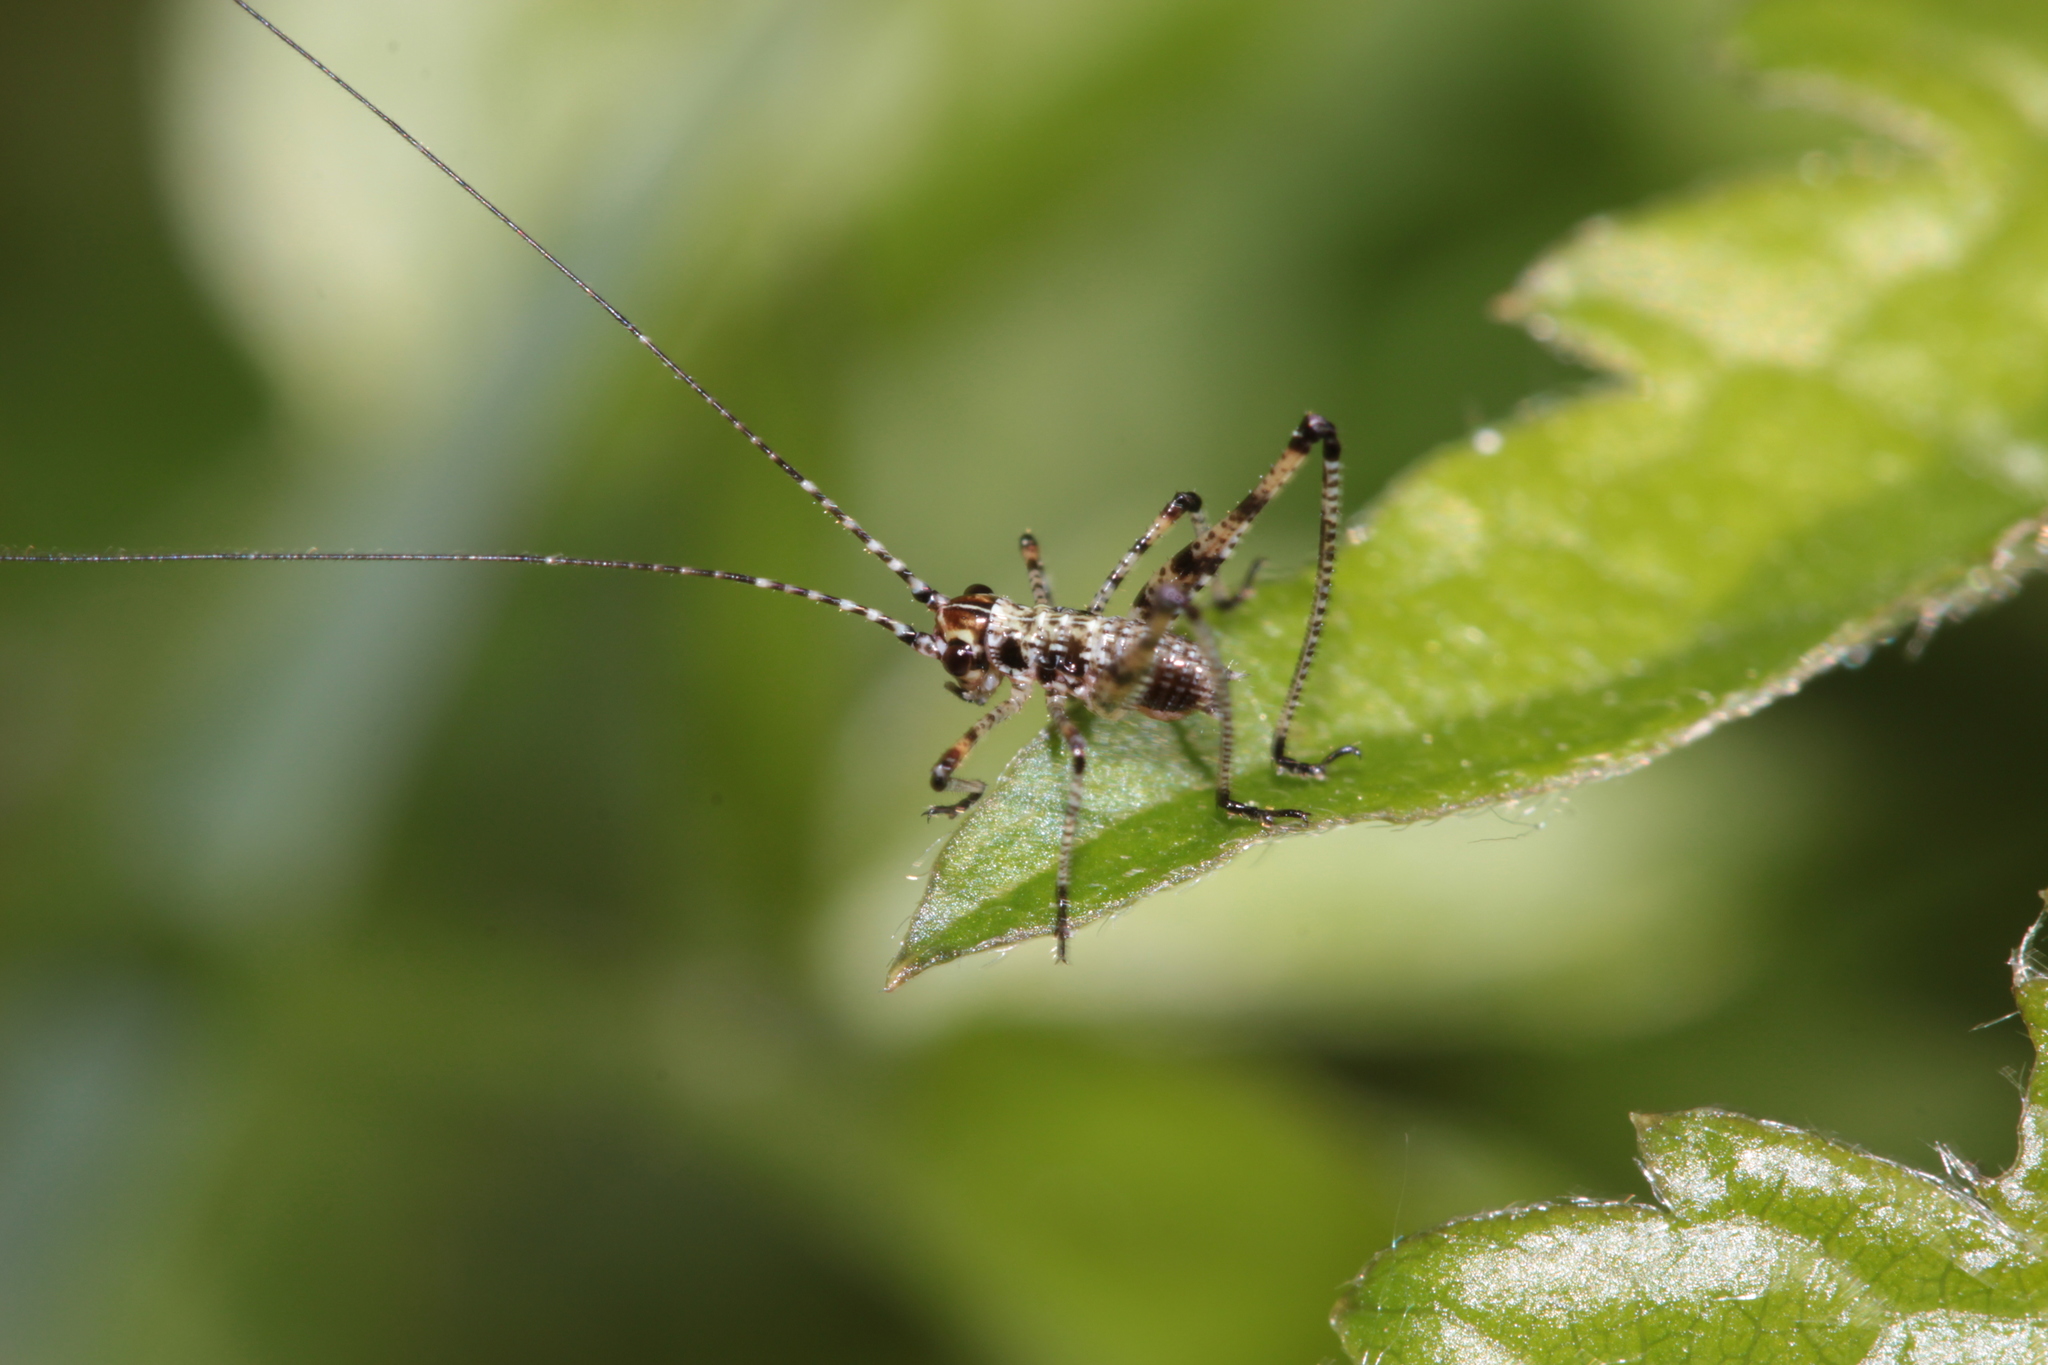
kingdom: Animalia
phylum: Arthropoda
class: Insecta
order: Orthoptera
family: Tettigoniidae
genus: Phaneroptera
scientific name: Phaneroptera nana
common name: Southern sickle bush-cricket
